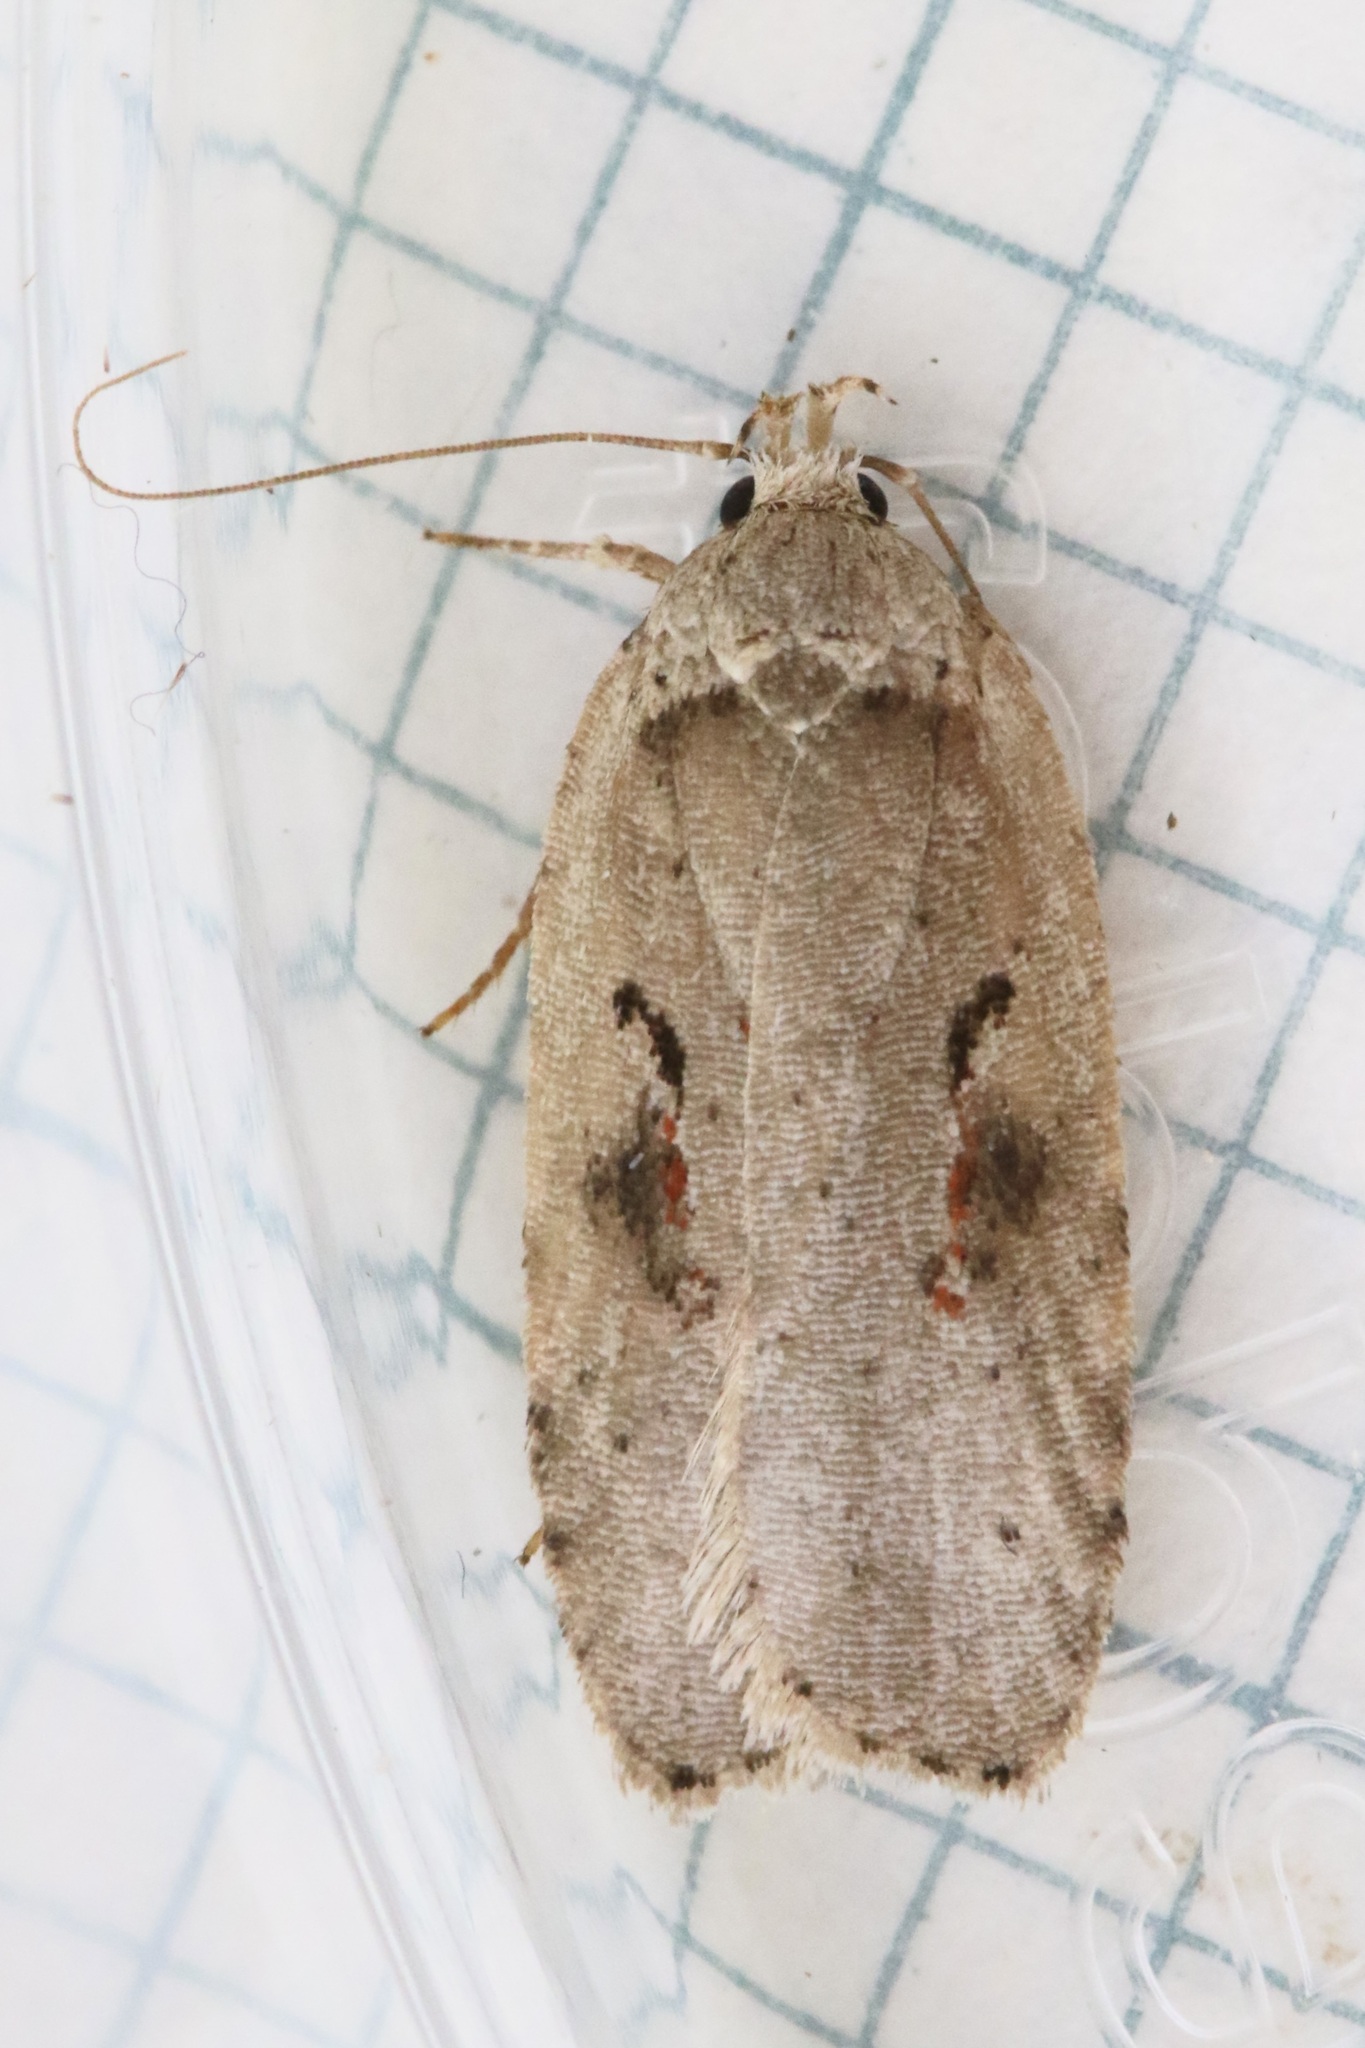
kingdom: Animalia
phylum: Arthropoda
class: Insecta
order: Lepidoptera
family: Depressariidae
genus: Agonopterix
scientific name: Agonopterix ocellana
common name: Red-letter flat-body
